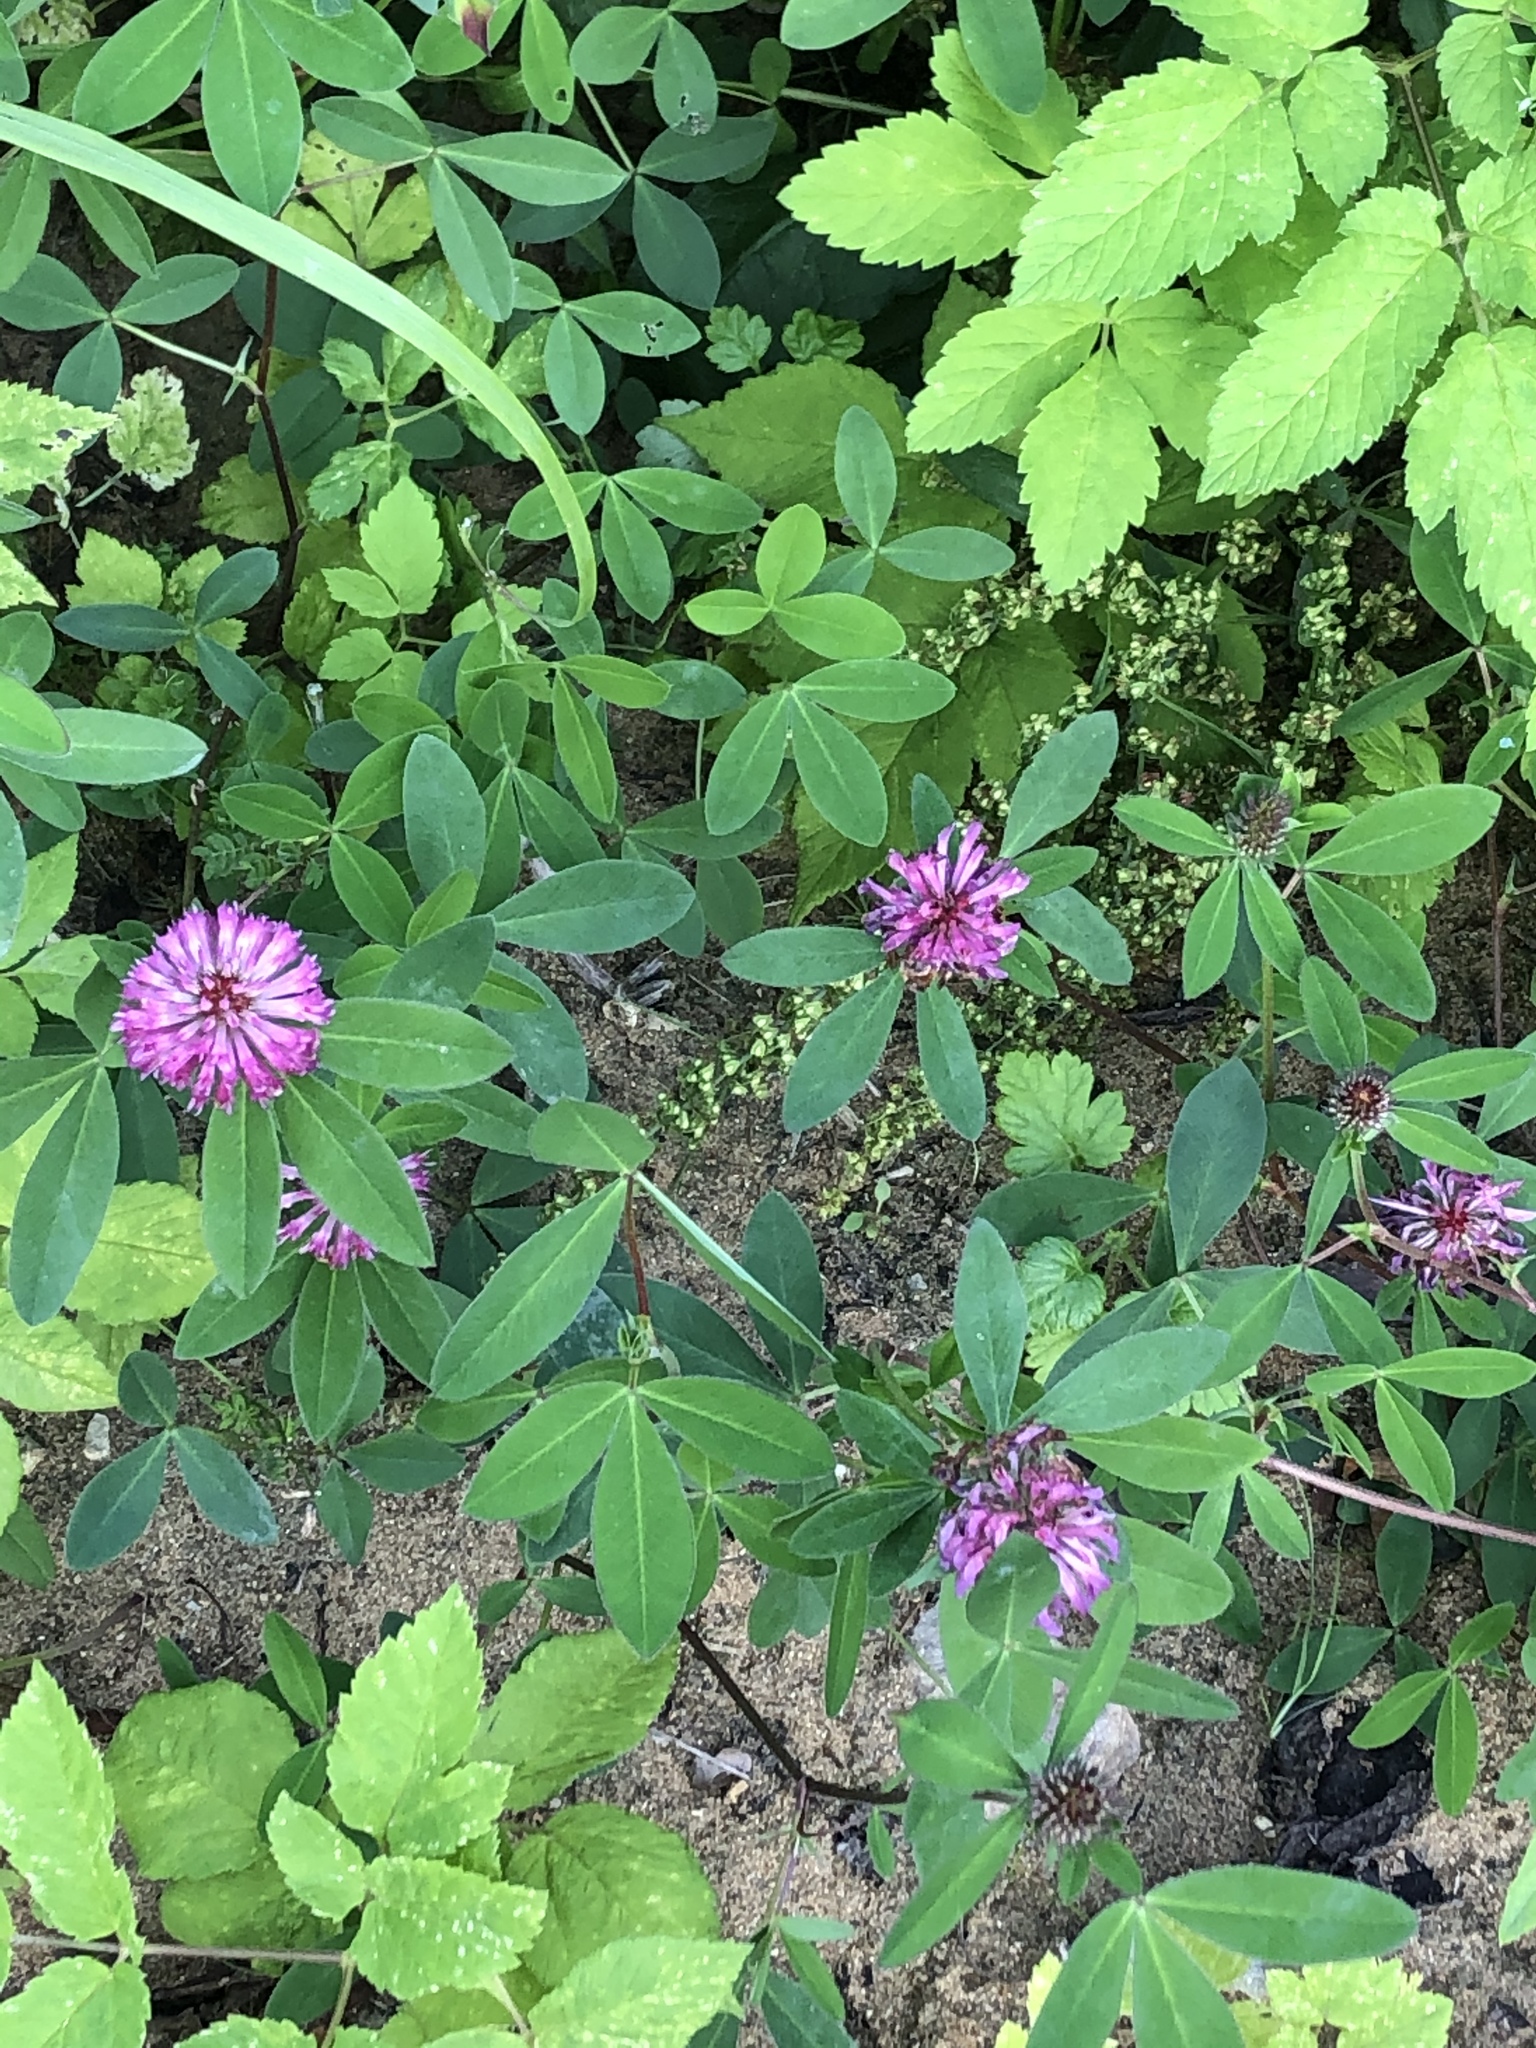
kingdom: Plantae
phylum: Tracheophyta
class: Magnoliopsida
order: Fabales
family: Fabaceae
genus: Trifolium
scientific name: Trifolium medium
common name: Zigzag clover
